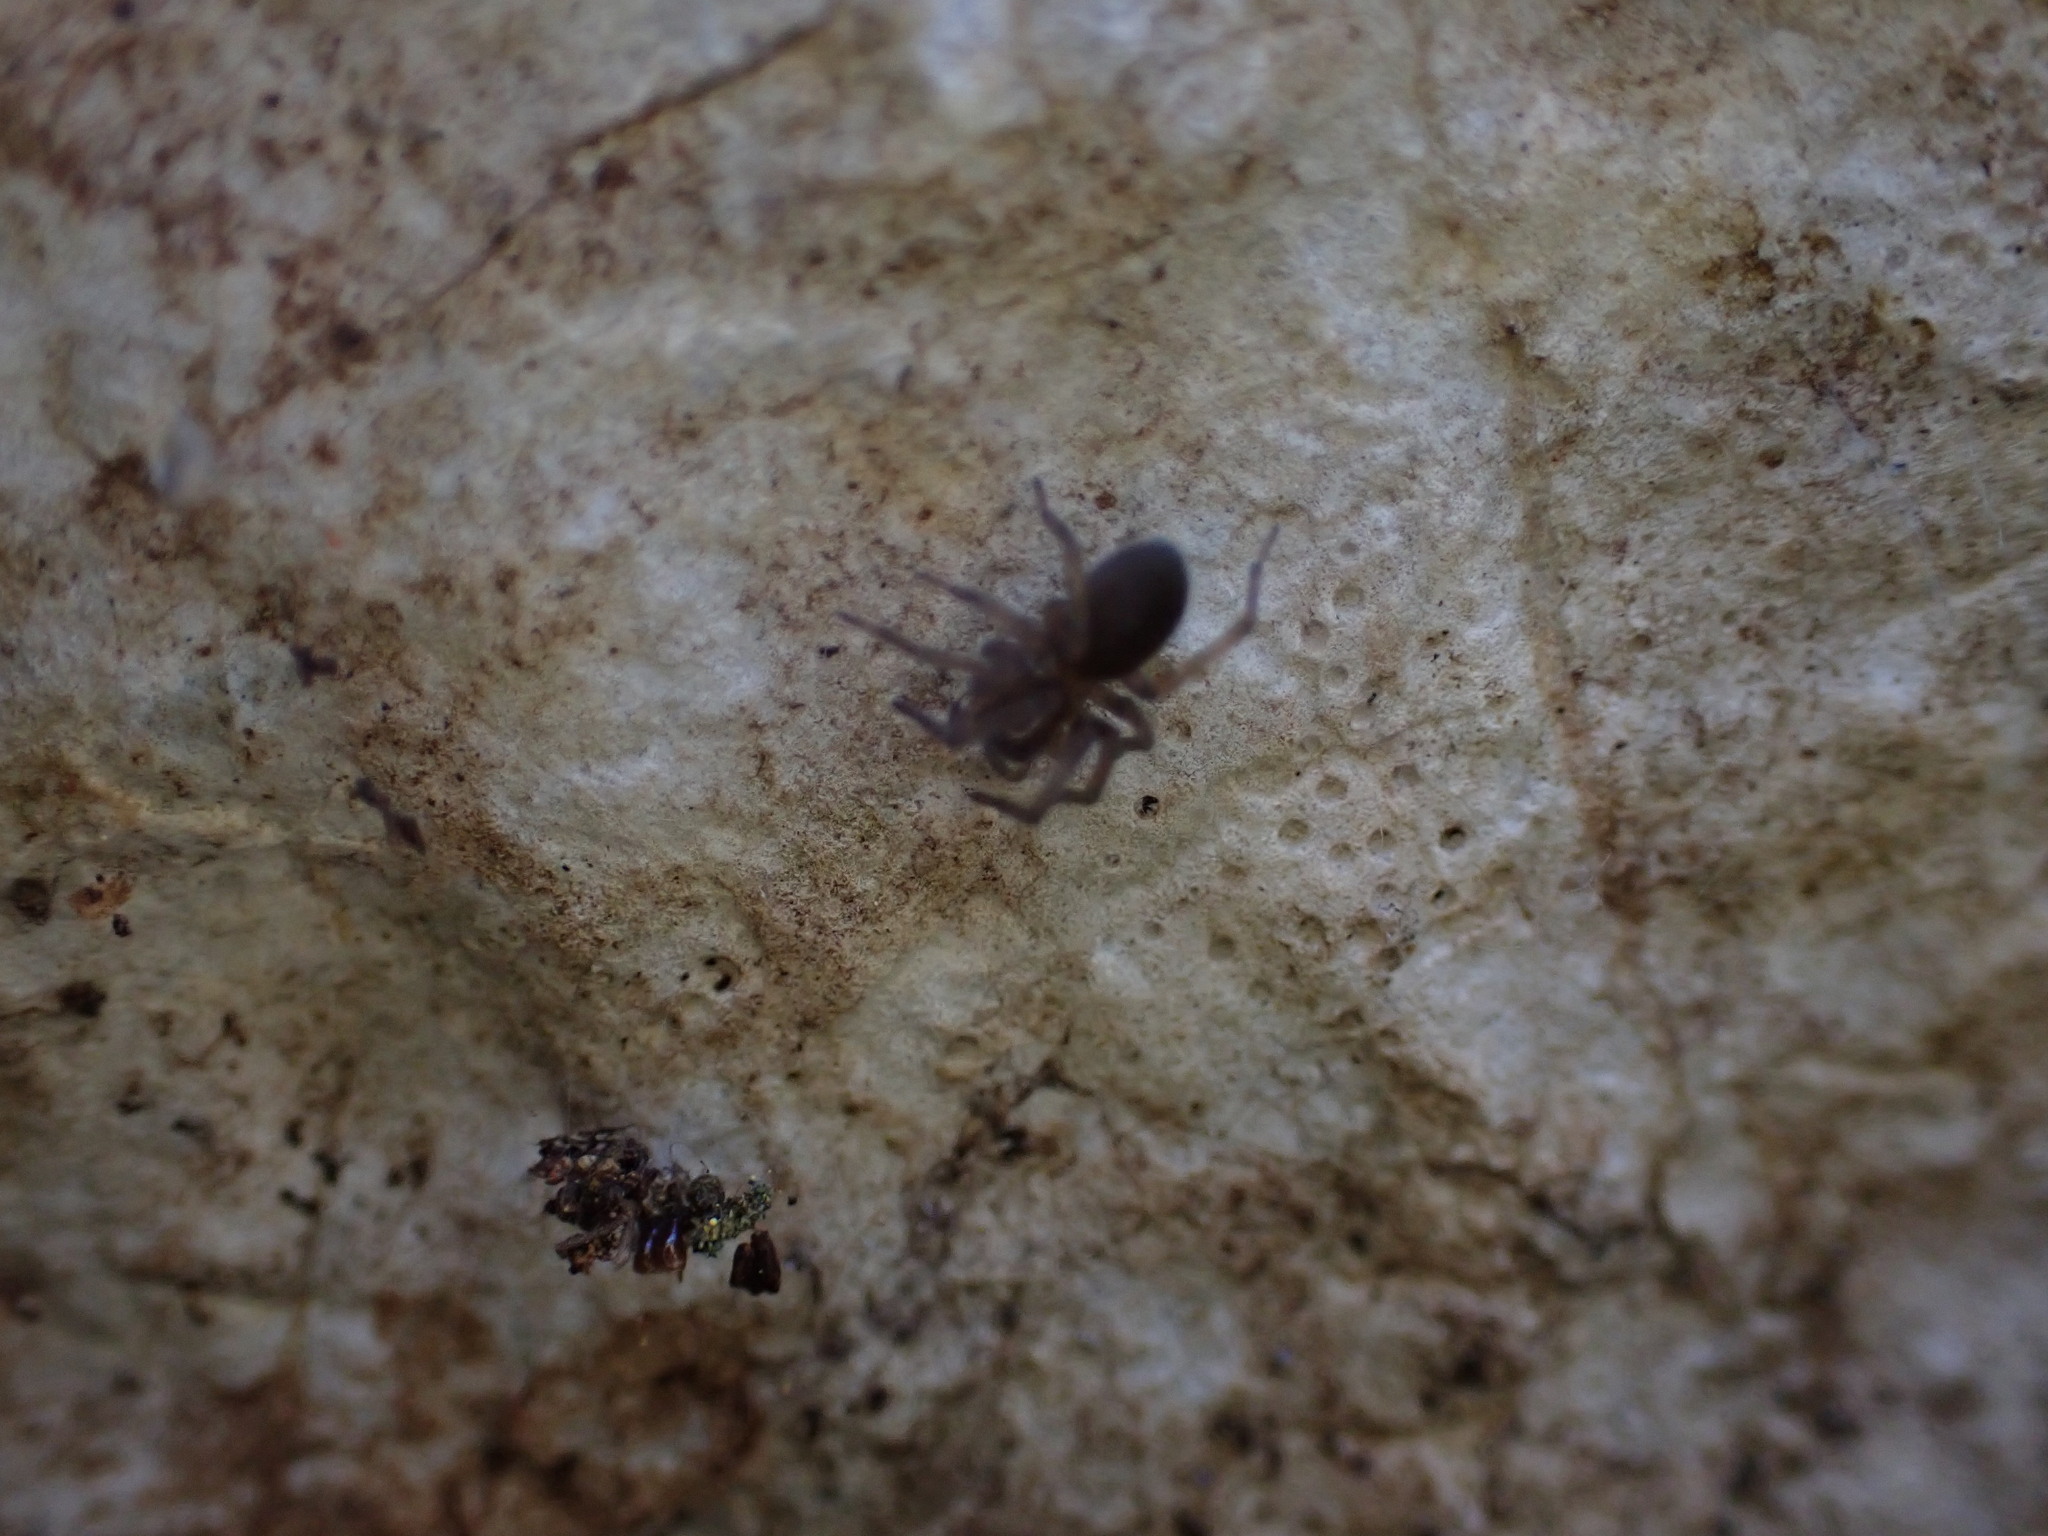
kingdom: Animalia
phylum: Arthropoda
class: Arachnida
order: Araneae
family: Amaurobiidae
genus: Amaurobius
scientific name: Amaurobius
